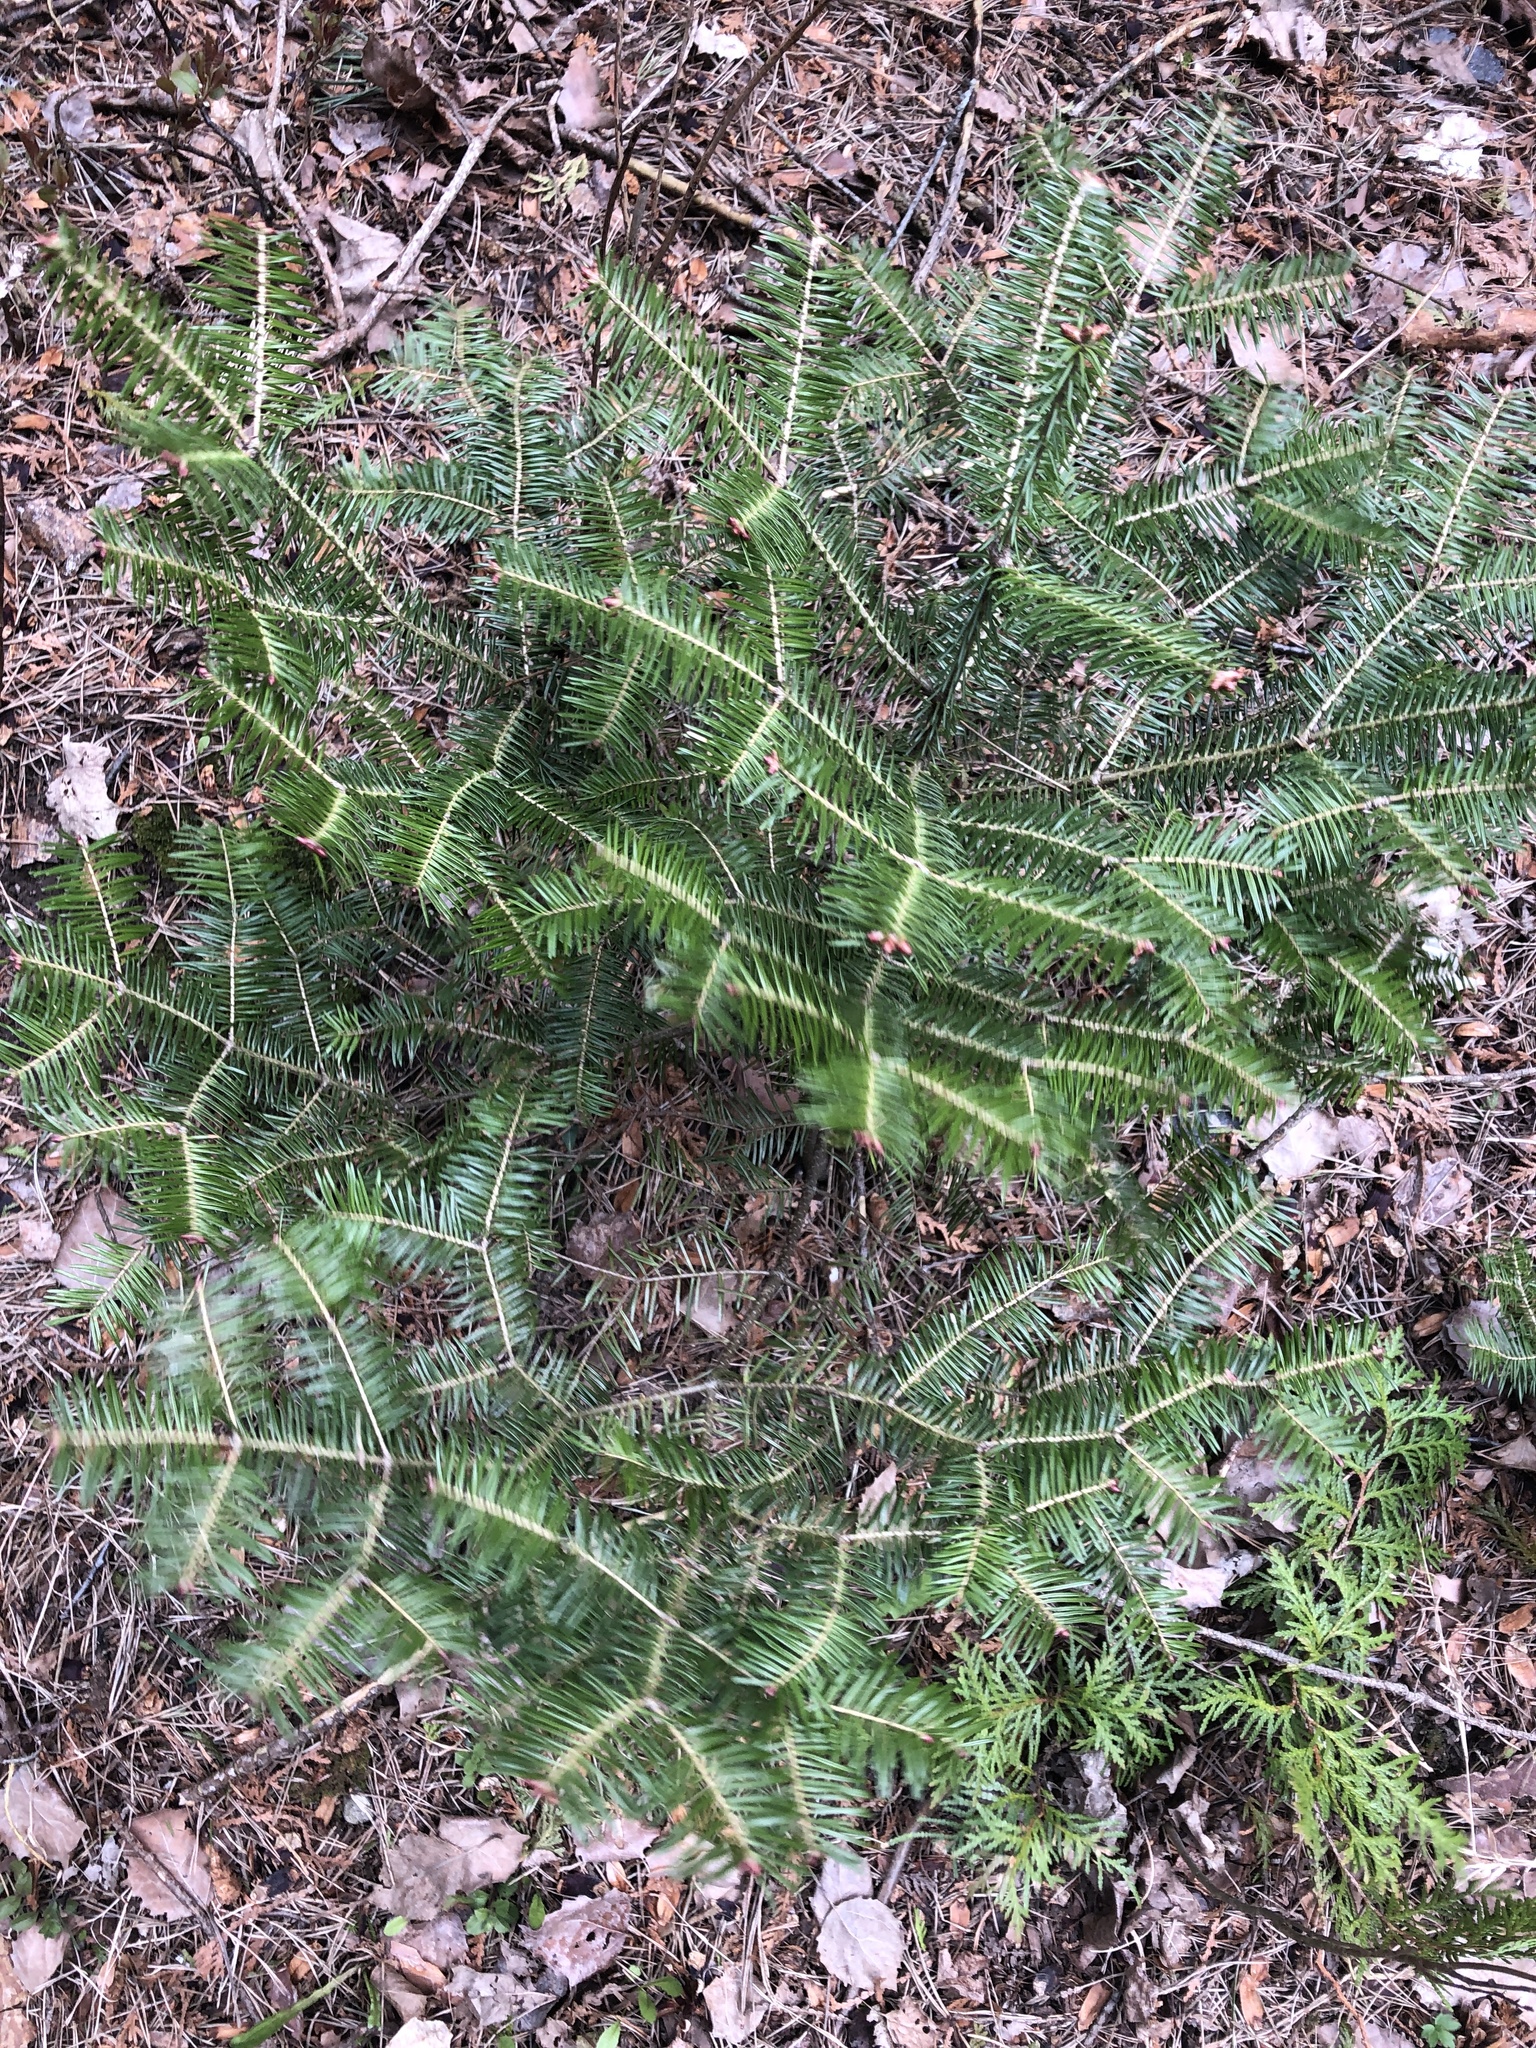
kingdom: Plantae
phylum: Tracheophyta
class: Pinopsida
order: Pinales
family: Pinaceae
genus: Abies
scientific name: Abies balsamea
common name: Balsam fir
